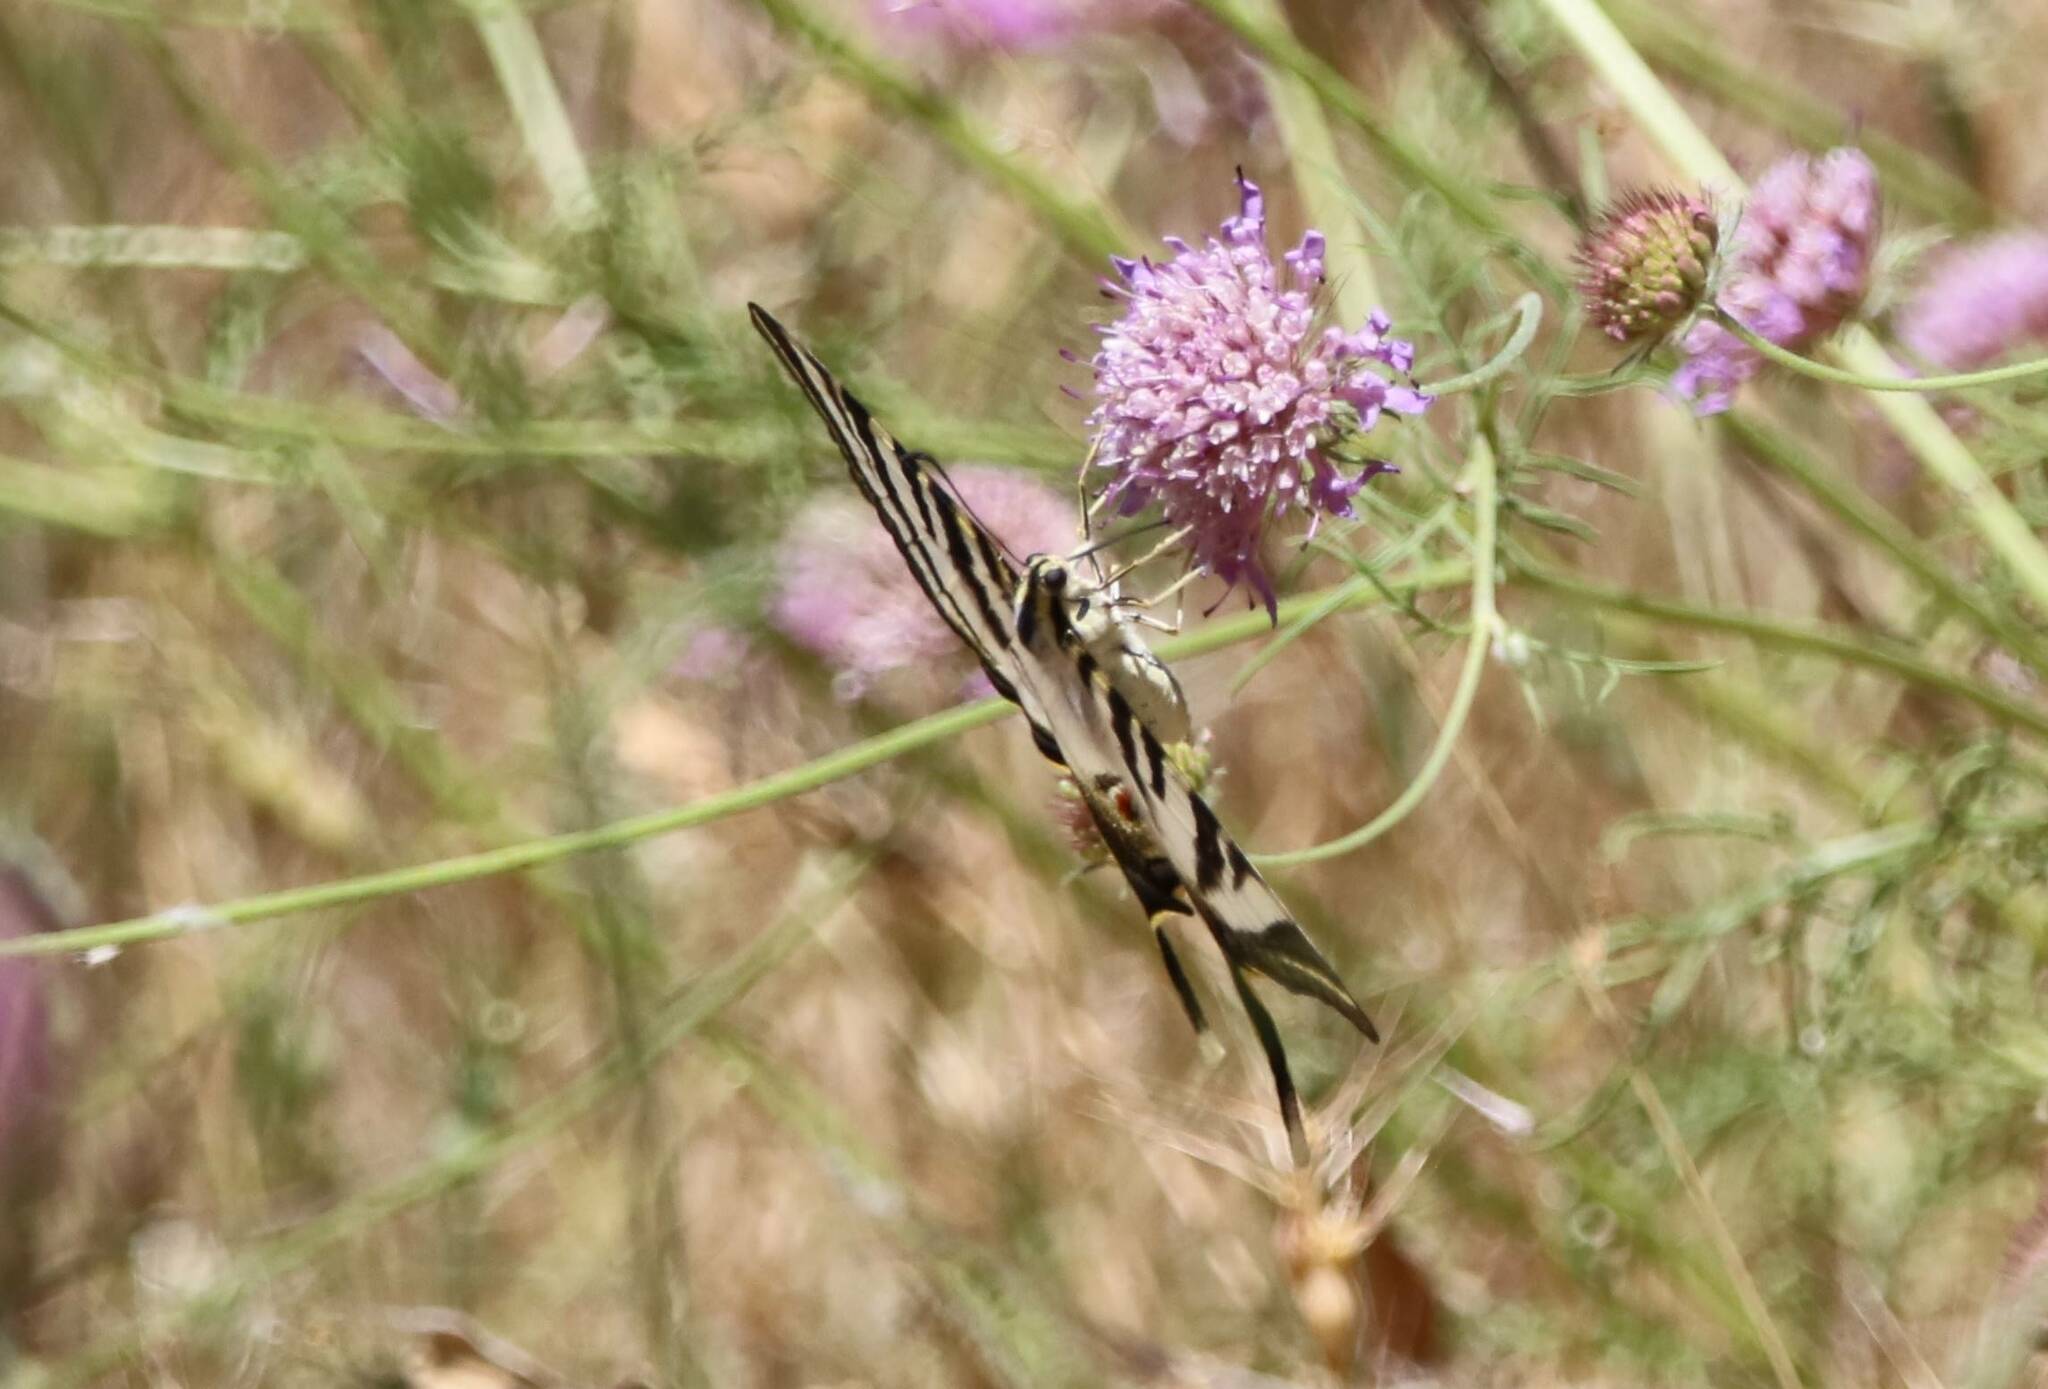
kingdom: Animalia
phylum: Arthropoda
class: Insecta
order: Lepidoptera
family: Papilionidae
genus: Iphiclides
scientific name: Iphiclides feisthamelii
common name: Iberian scarce swallowtail
